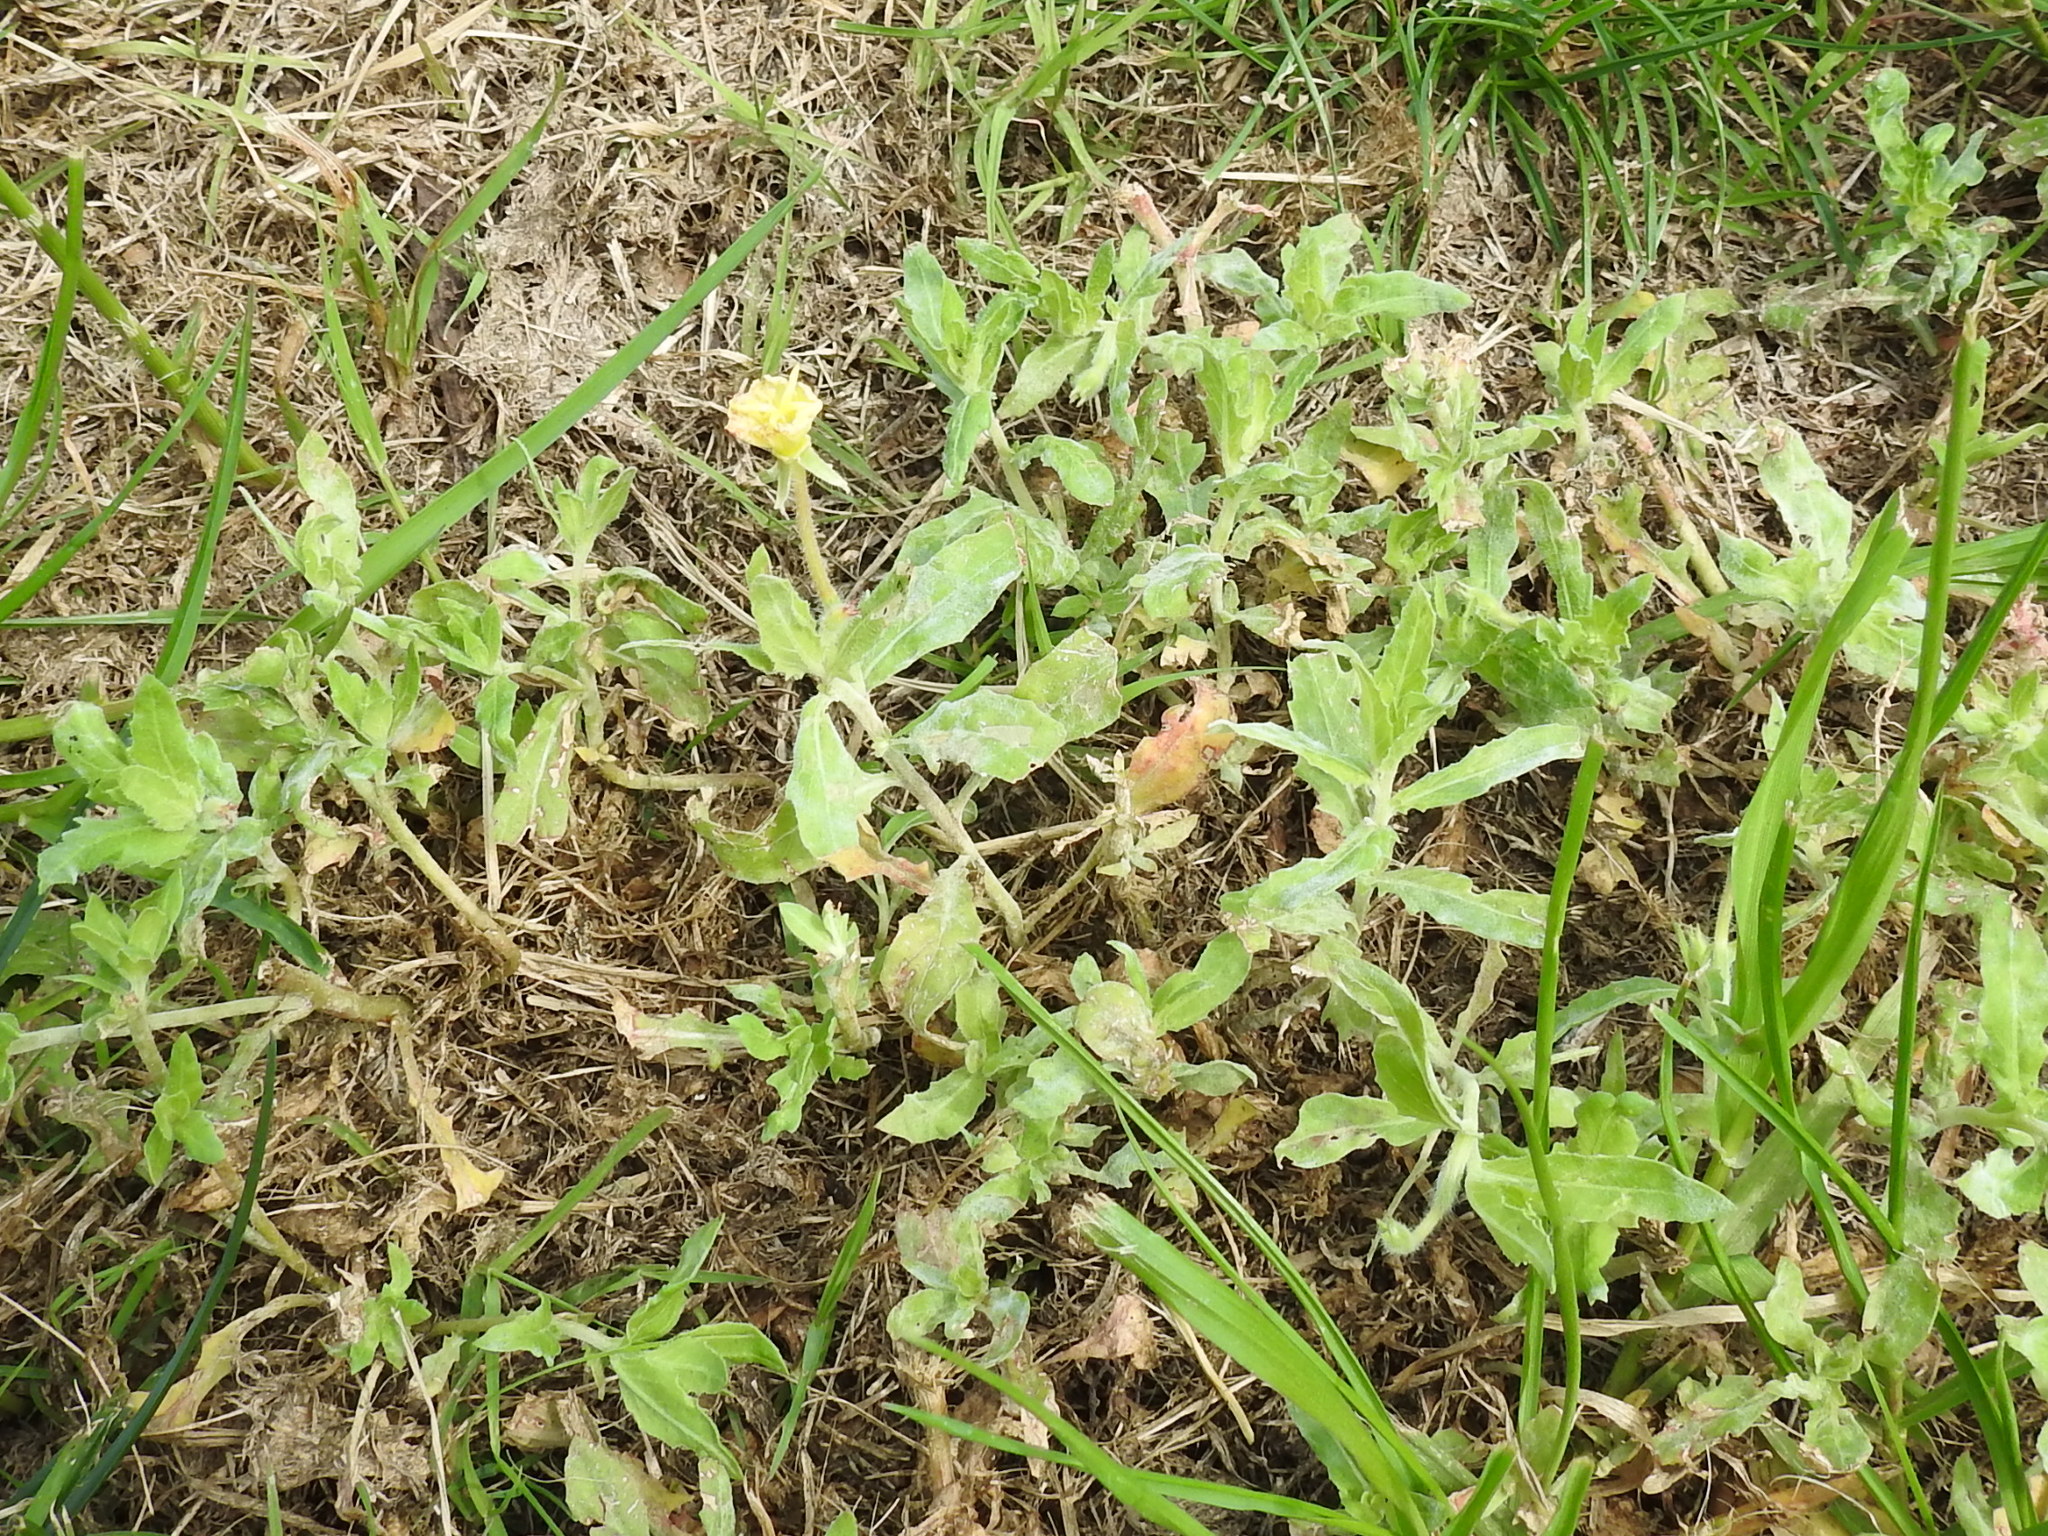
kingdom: Plantae
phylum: Tracheophyta
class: Magnoliopsida
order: Myrtales
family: Onagraceae
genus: Oenothera
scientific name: Oenothera laciniata
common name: Cut-leaved evening-primrose
